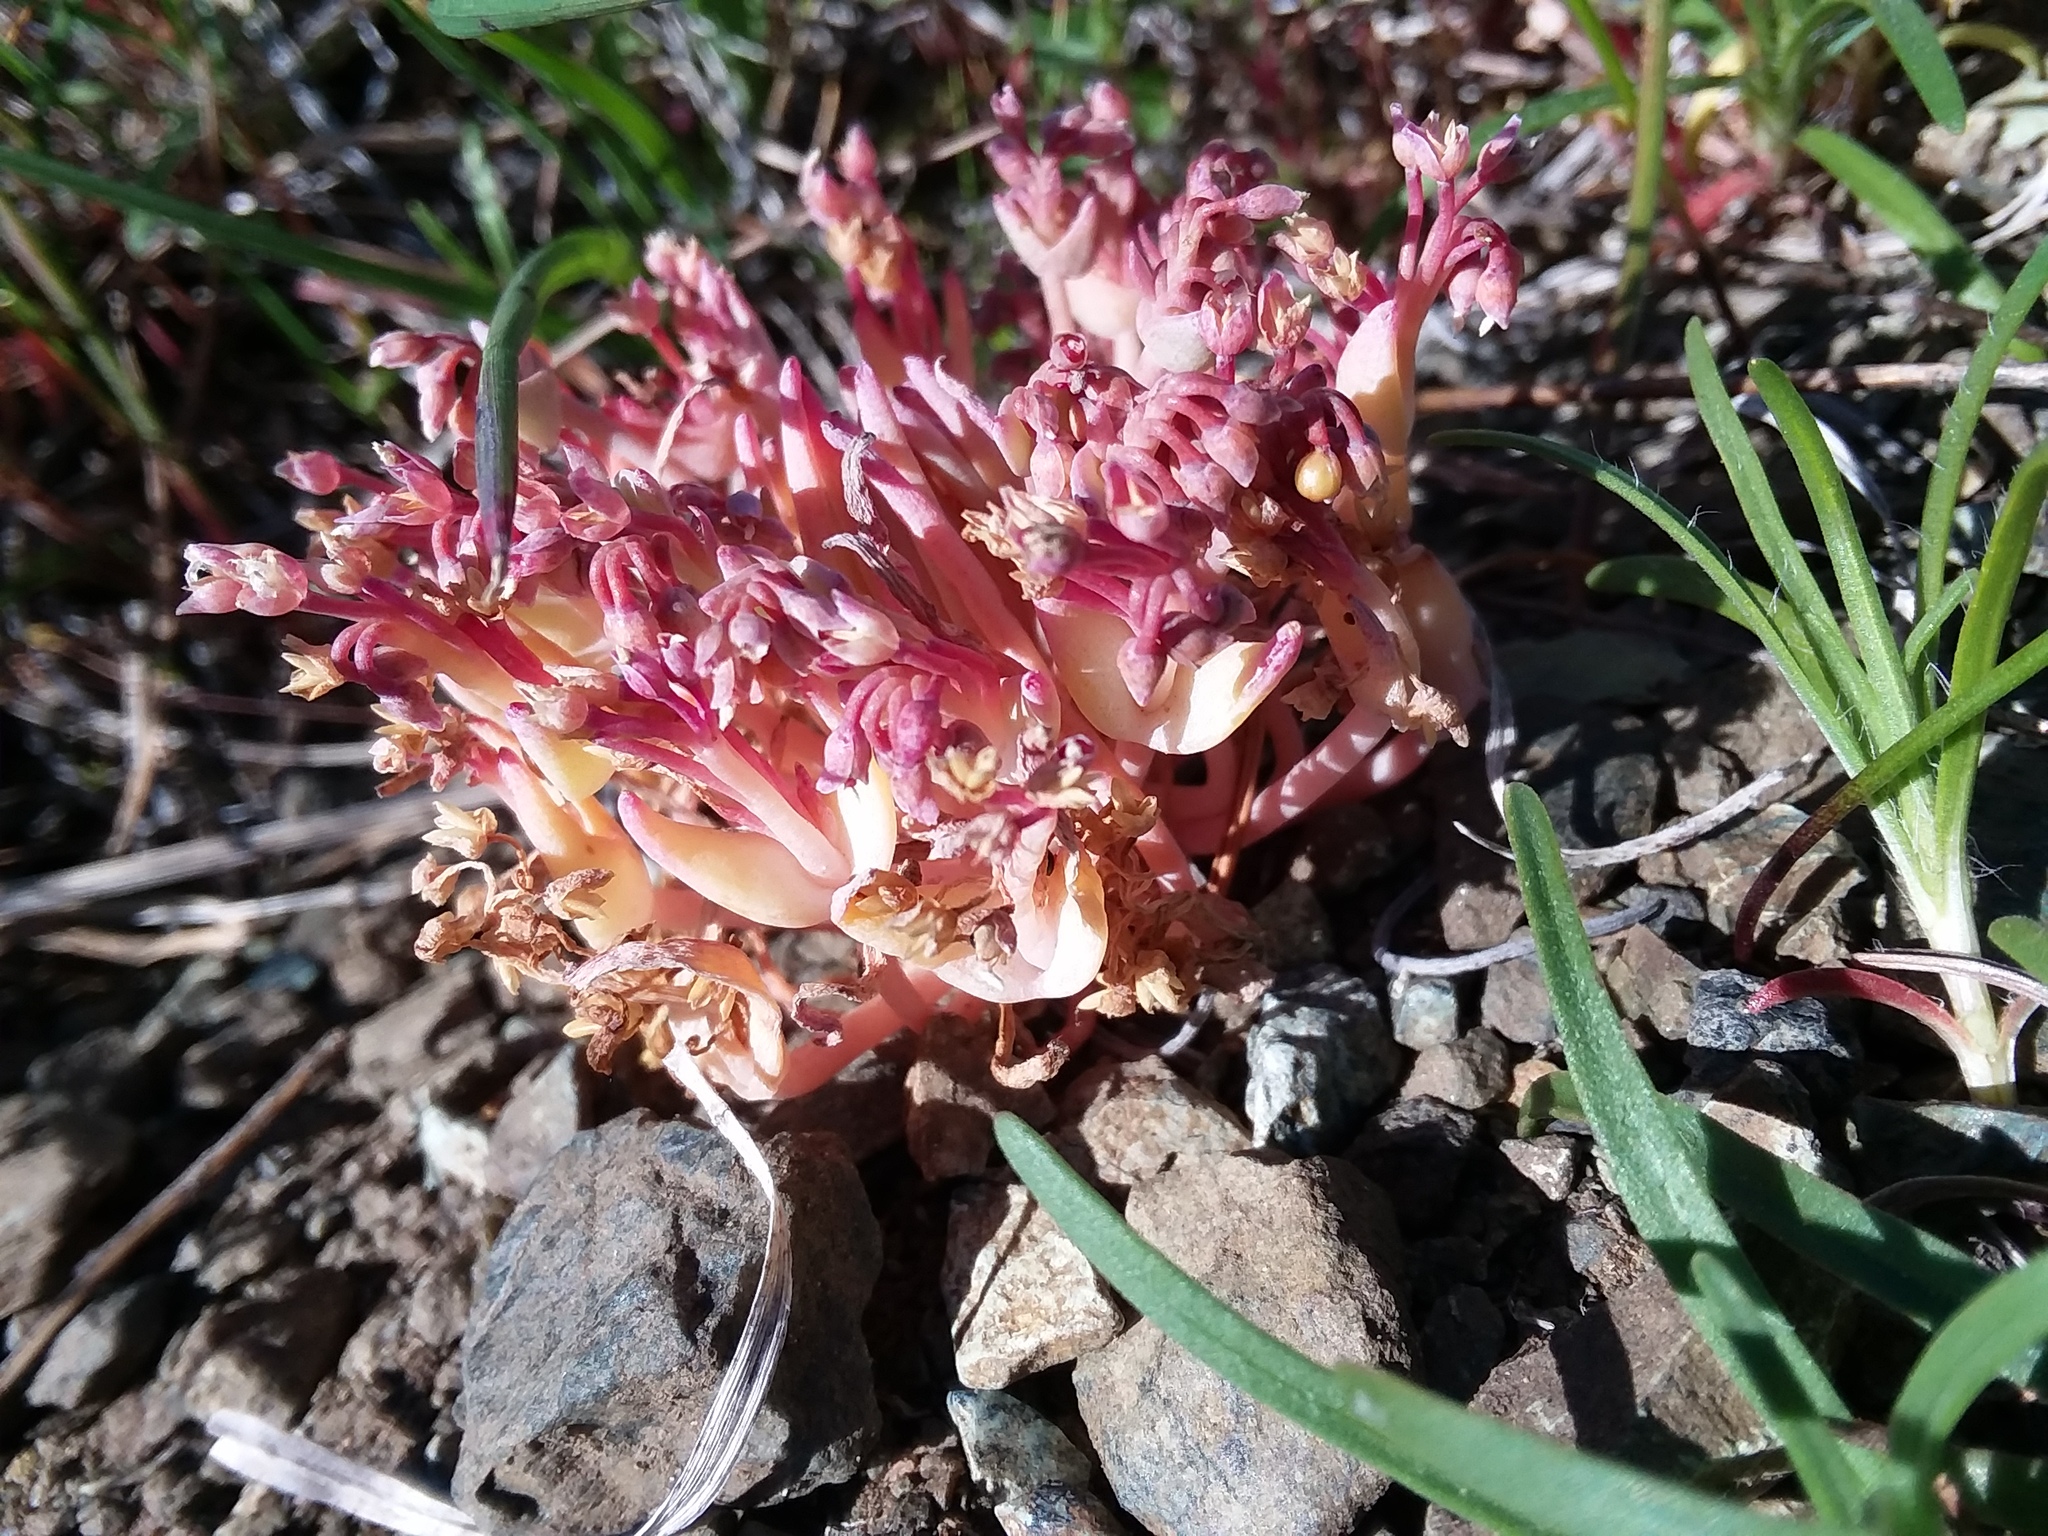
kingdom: Plantae
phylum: Tracheophyta
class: Magnoliopsida
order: Caryophyllales
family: Montiaceae
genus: Claytonia
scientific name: Claytonia exigua
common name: Pale spring beauty
